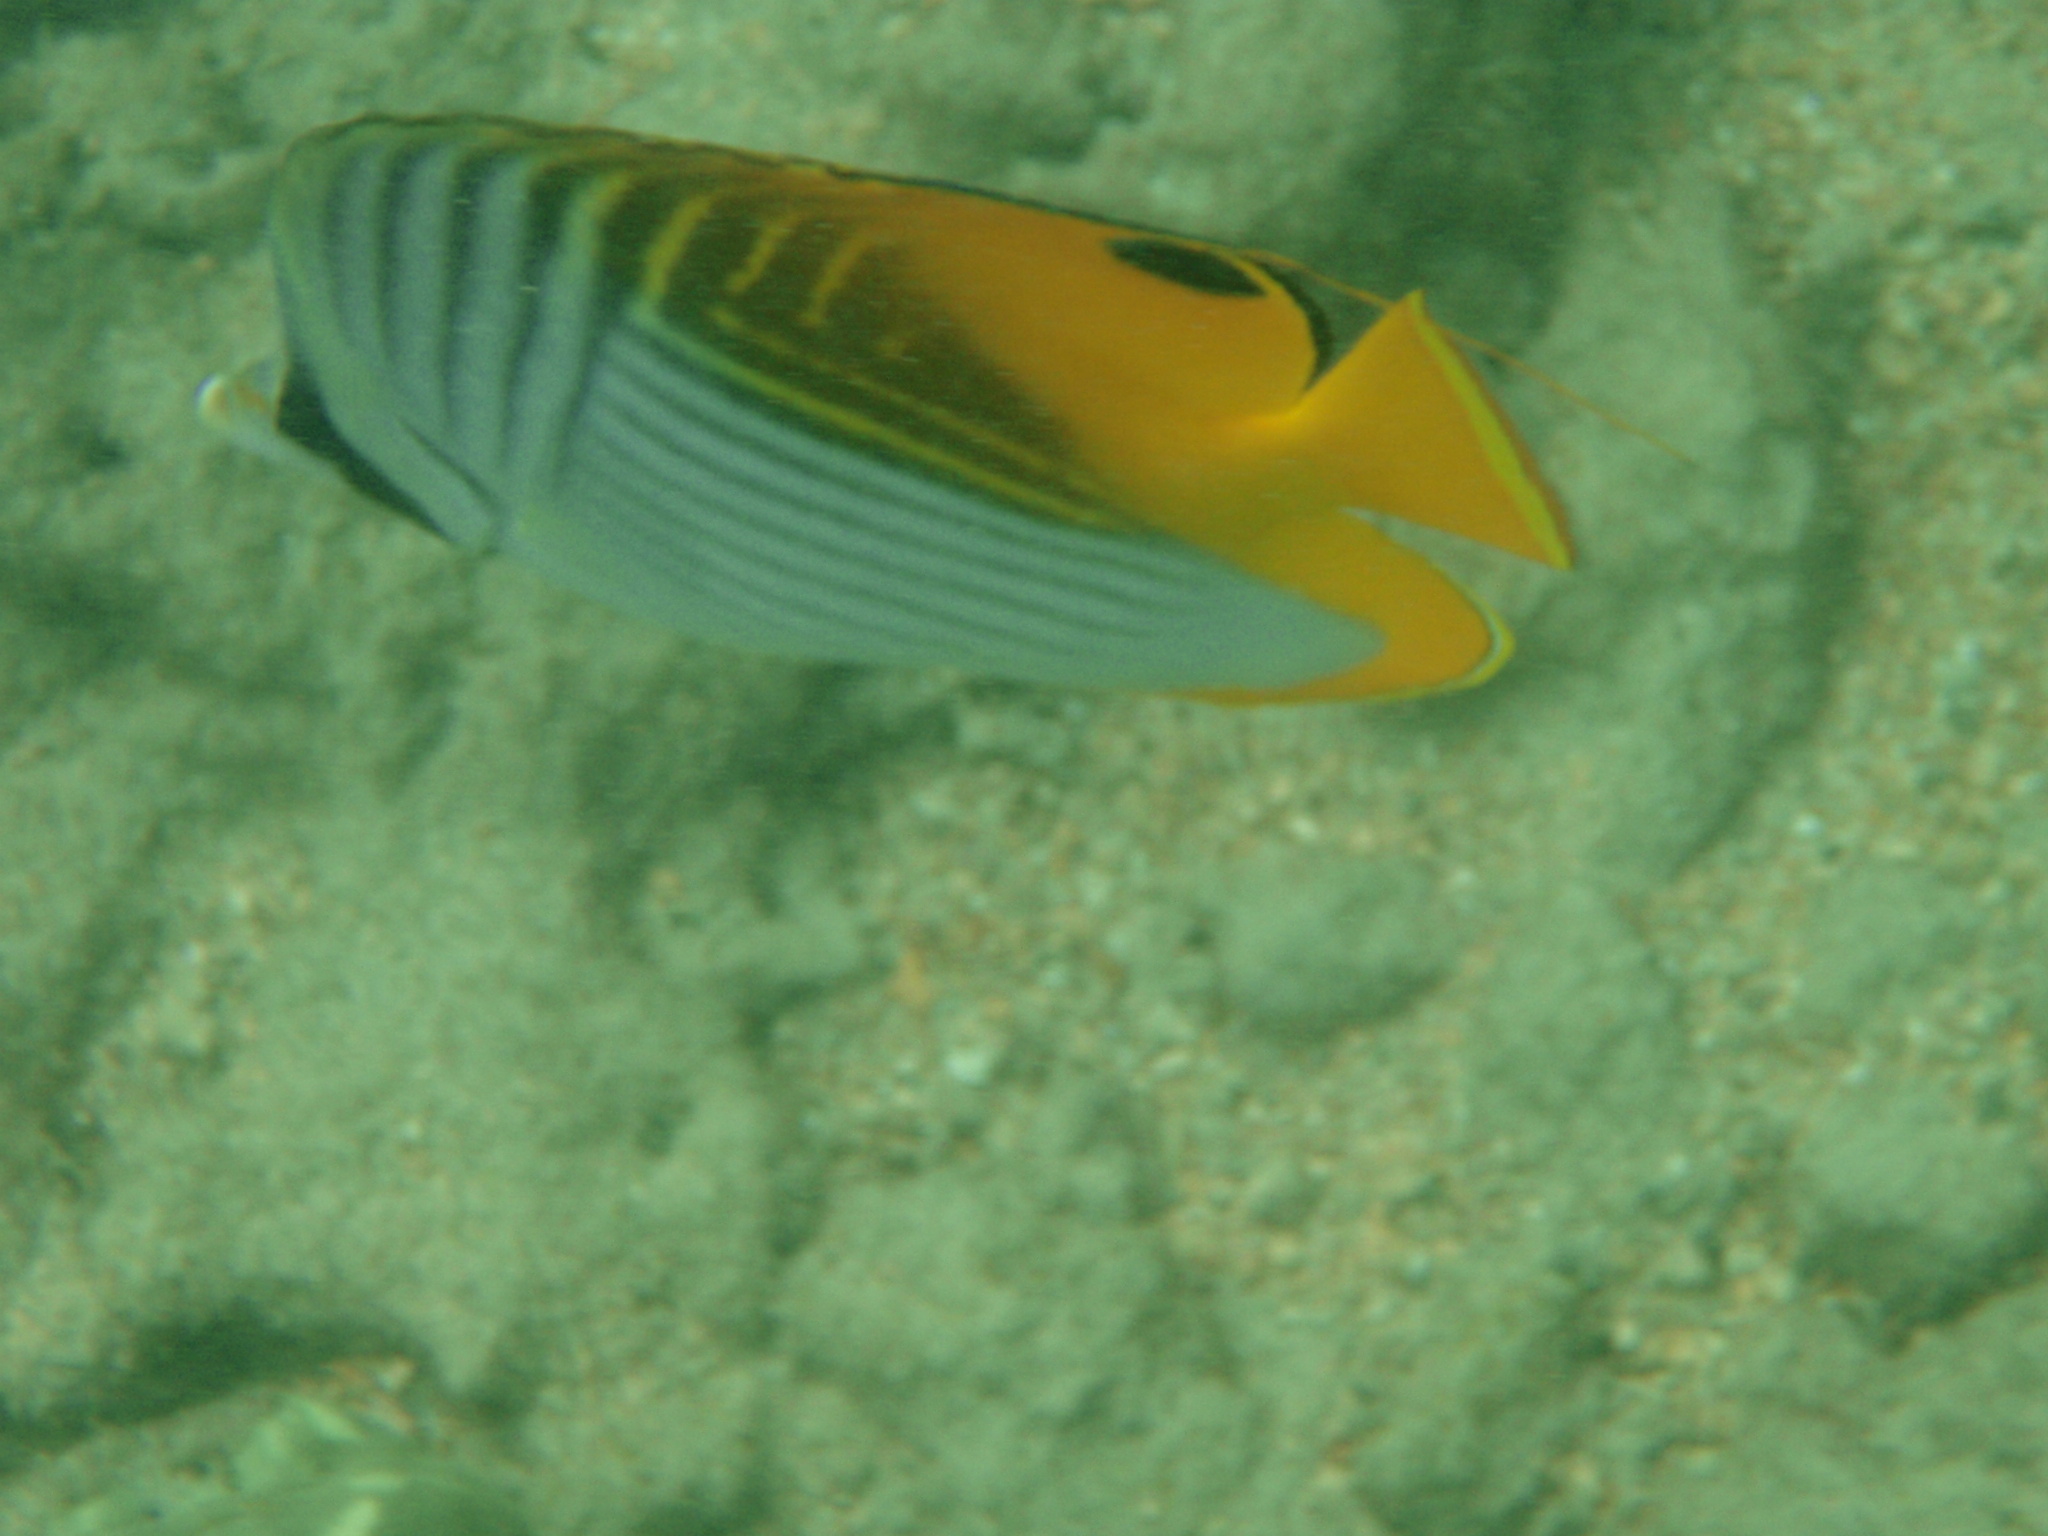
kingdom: Animalia
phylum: Chordata
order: Perciformes
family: Chaetodontidae
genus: Chaetodon
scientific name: Chaetodon auriga
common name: Threadfin butterflyfish
